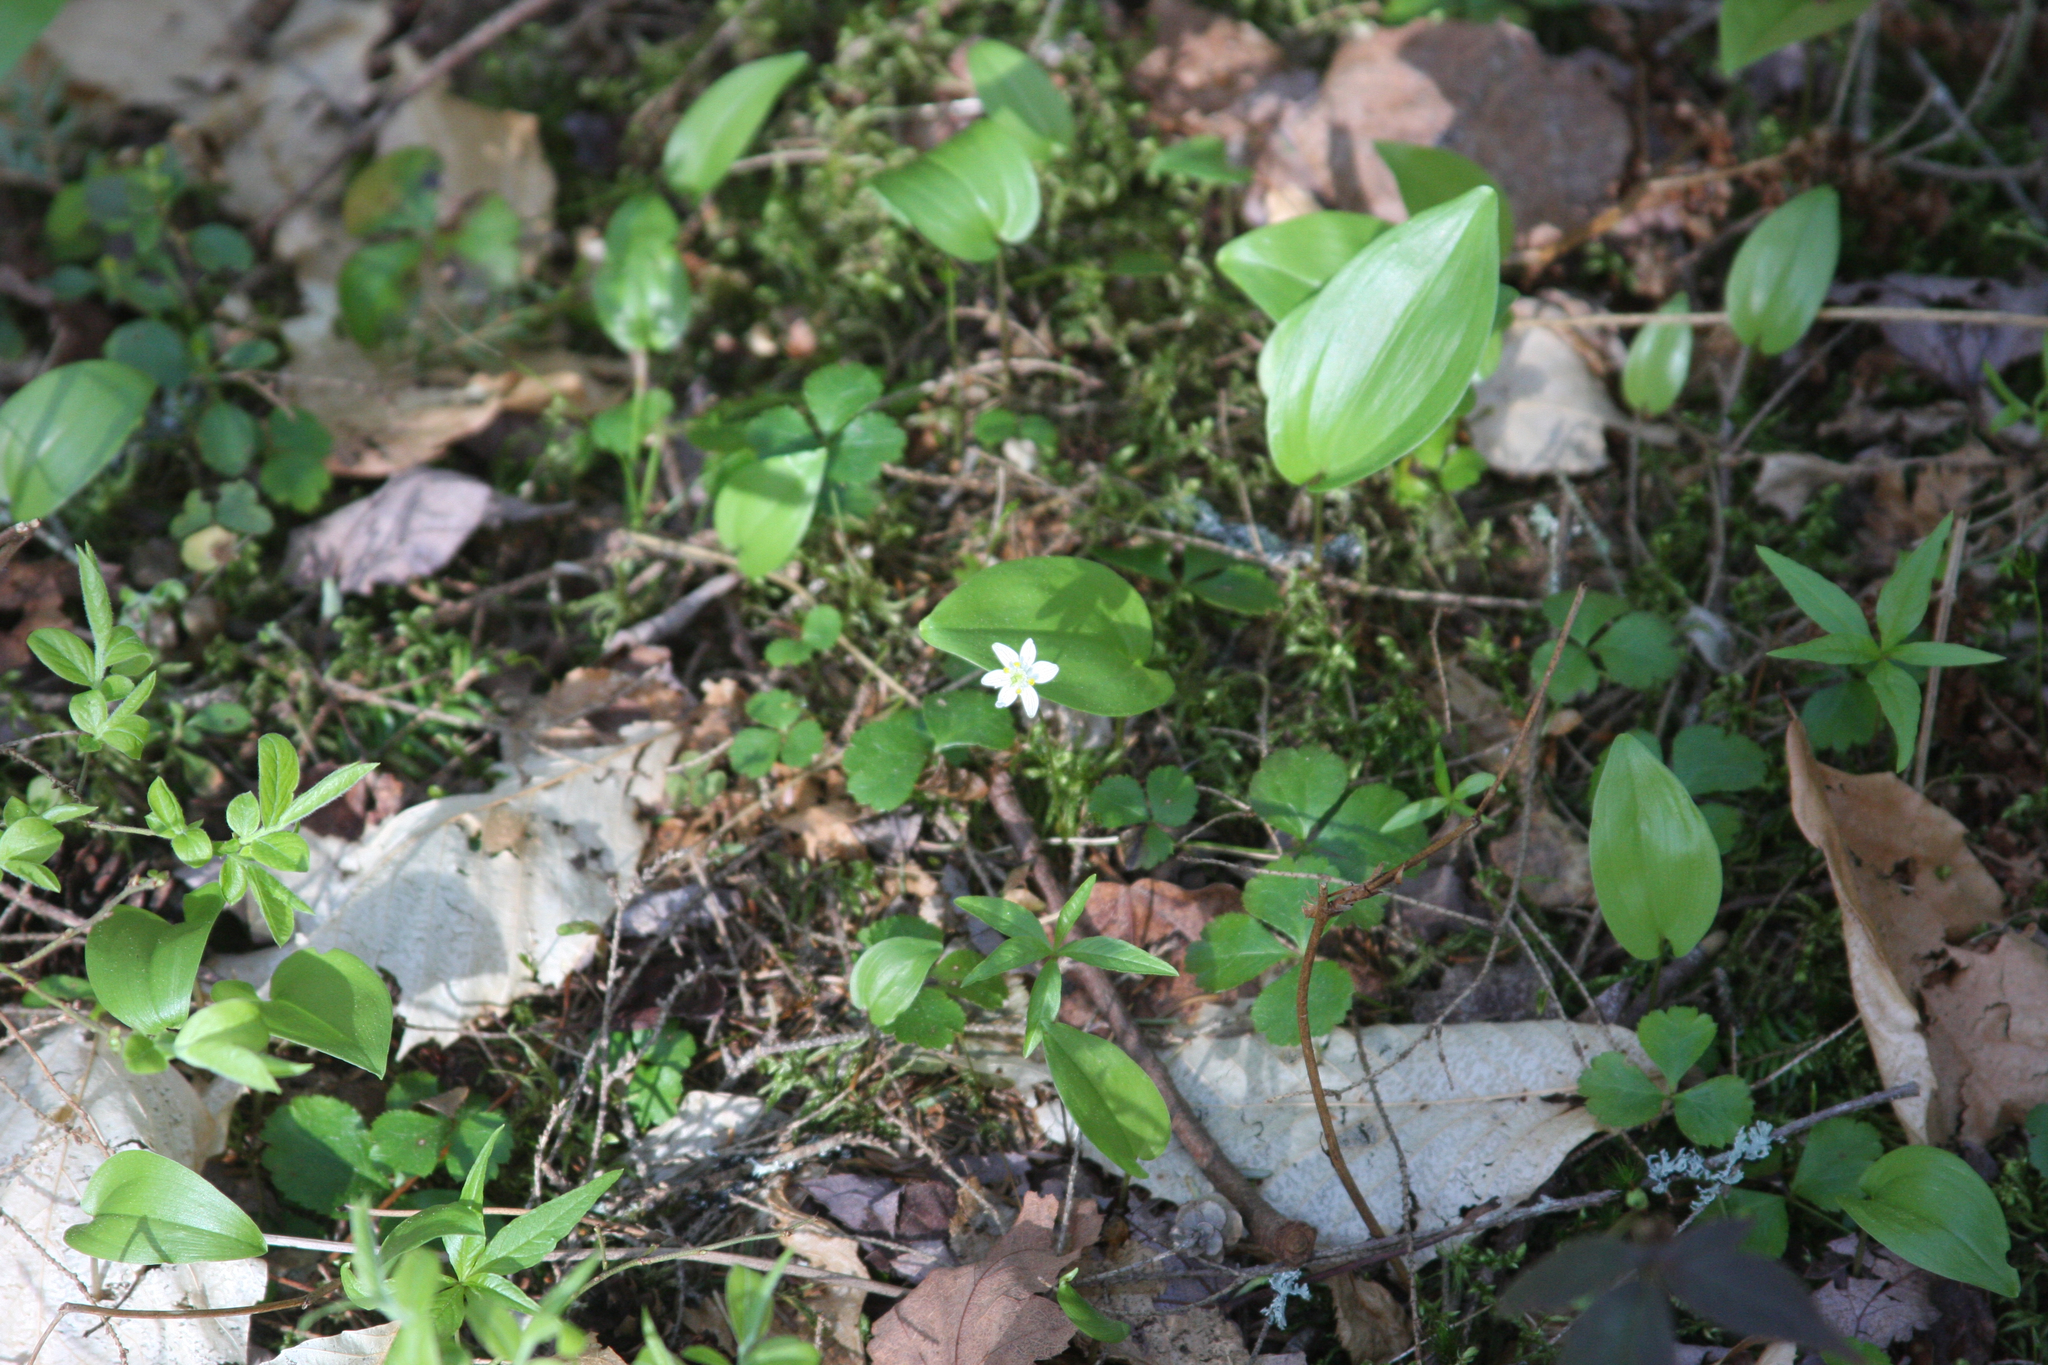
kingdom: Plantae
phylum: Tracheophyta
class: Liliopsida
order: Asparagales
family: Asparagaceae
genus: Maianthemum
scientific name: Maianthemum canadense
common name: False lily-of-the-valley
